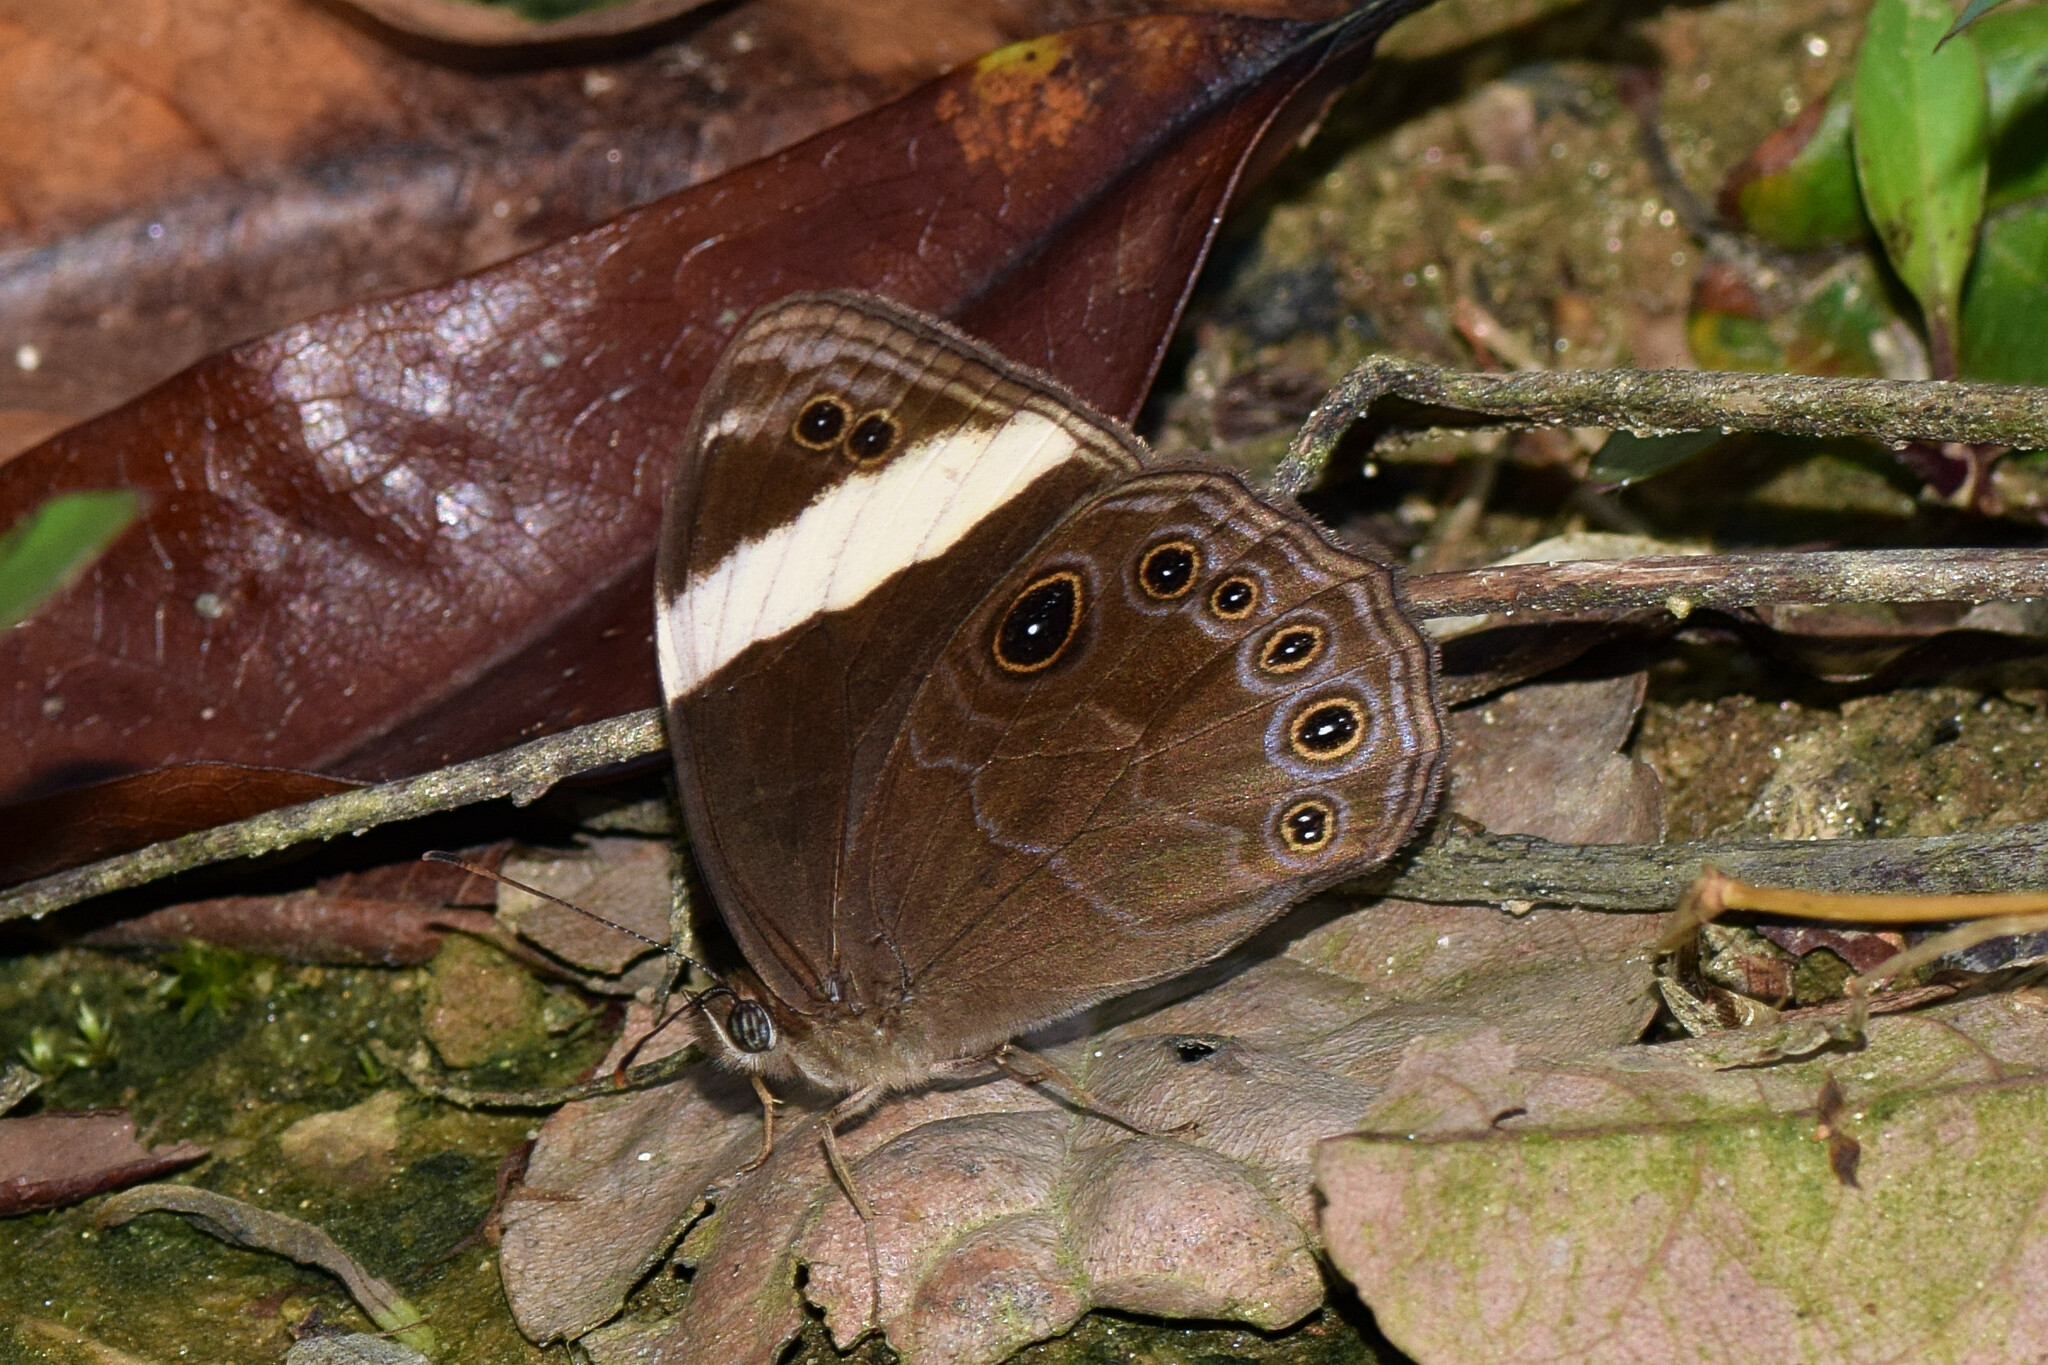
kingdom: Animalia
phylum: Arthropoda
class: Insecta
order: Lepidoptera
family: Nymphalidae
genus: Lethe
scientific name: Lethe verma
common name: Straight-banded treebrown
